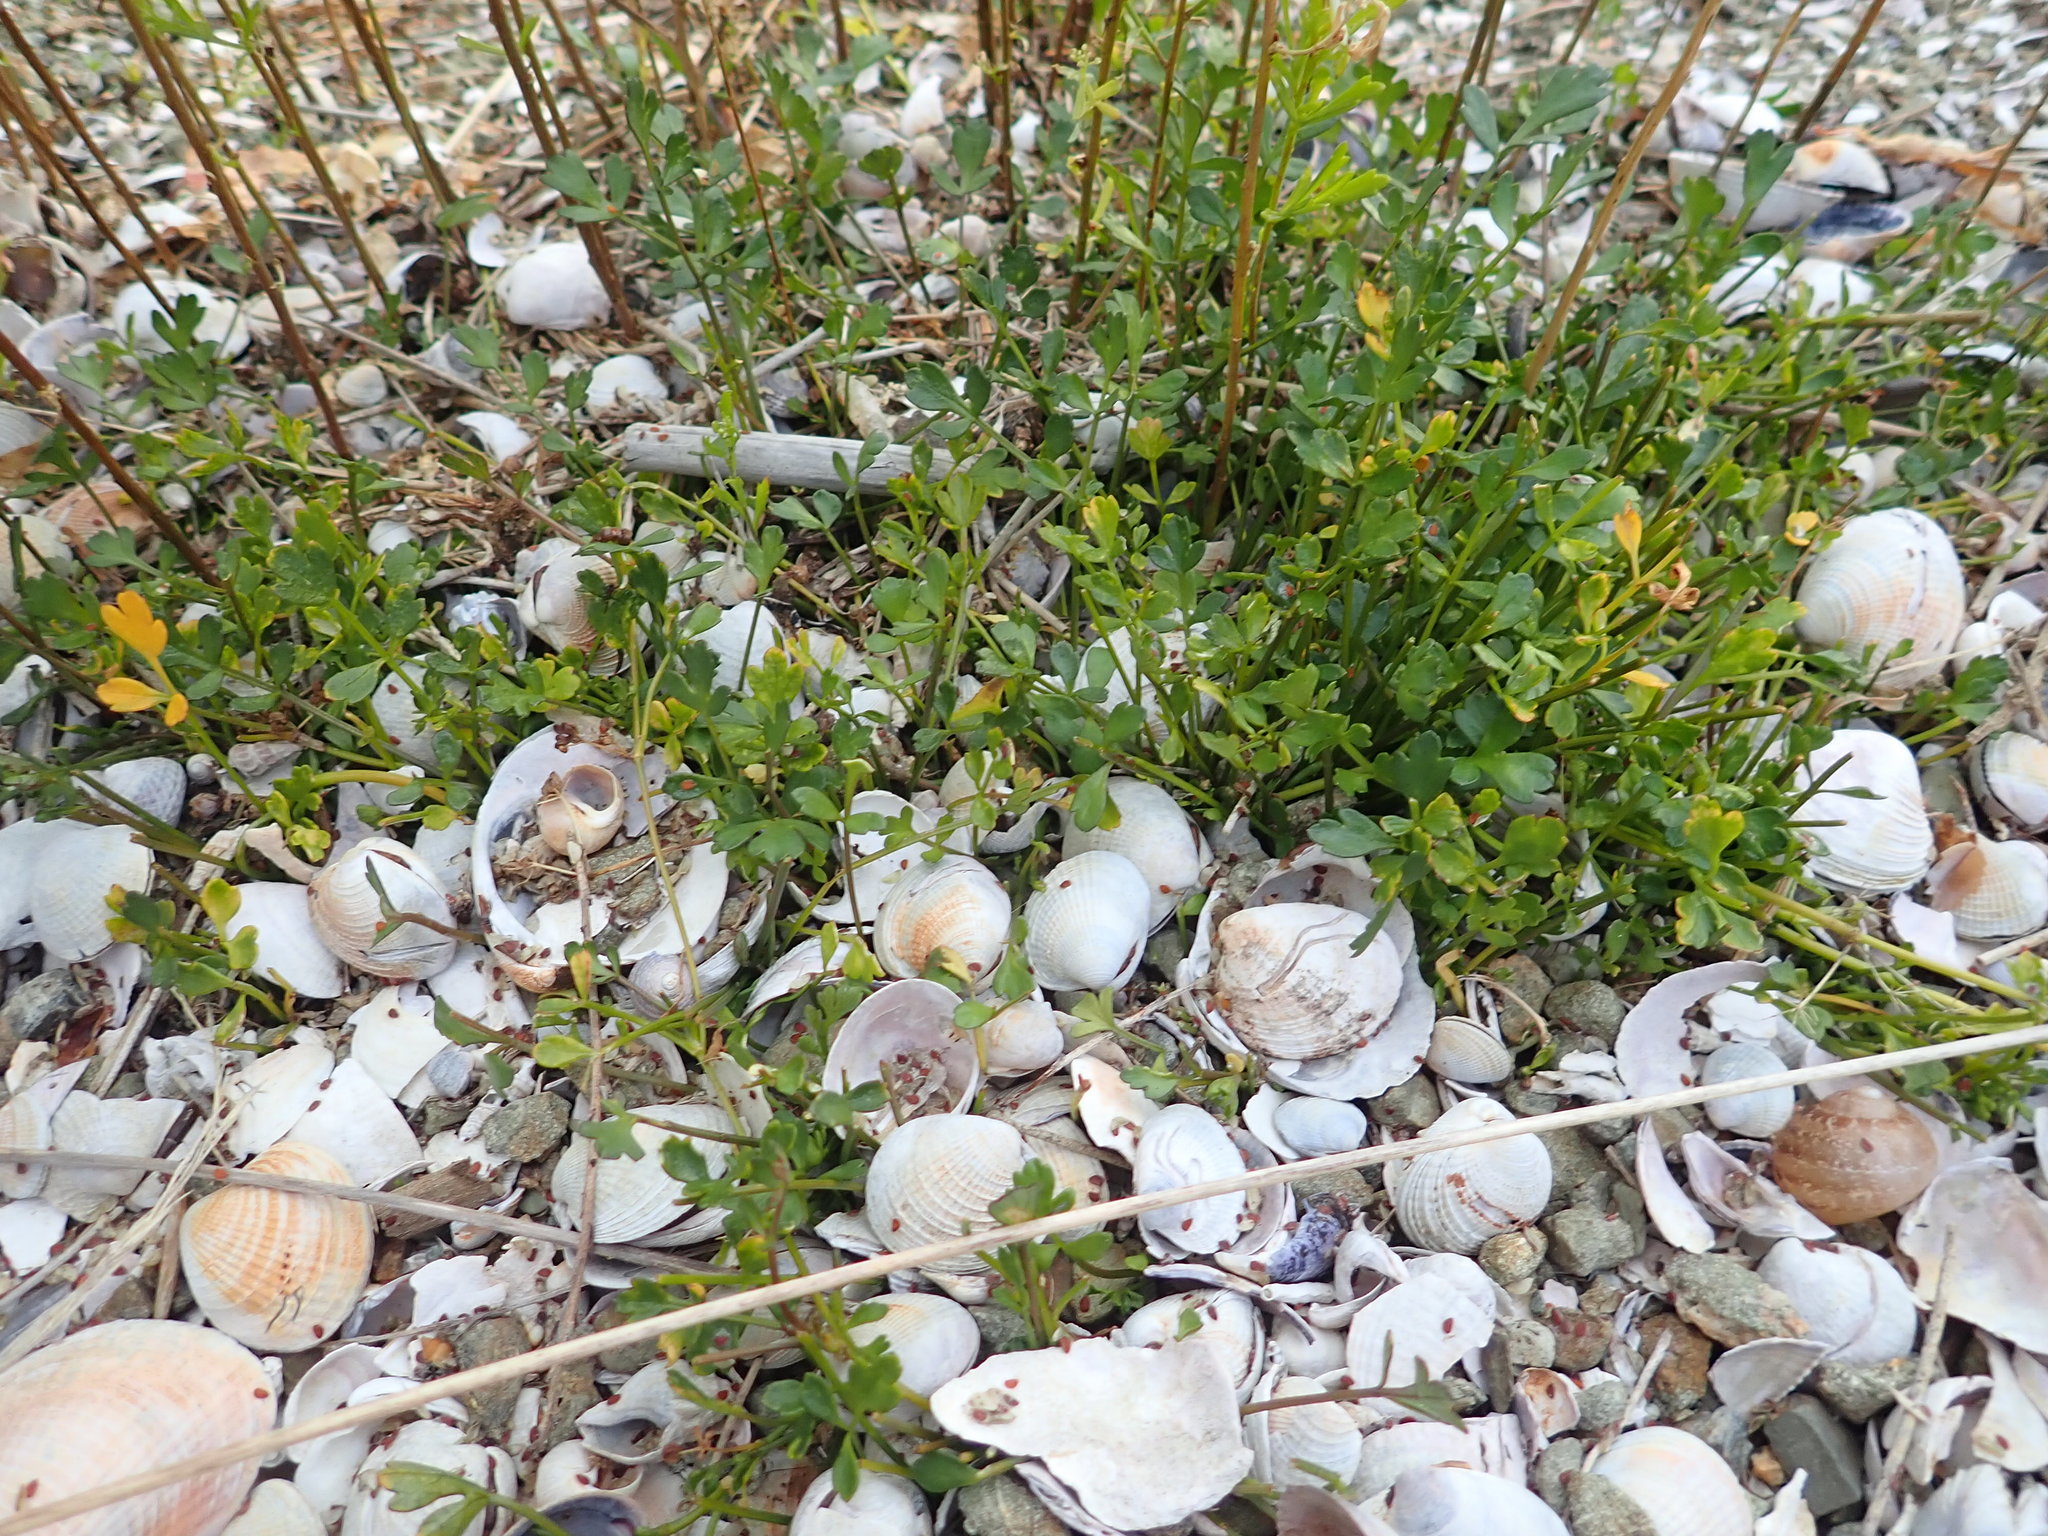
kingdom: Plantae
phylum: Tracheophyta
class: Magnoliopsida
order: Apiales
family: Apiaceae
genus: Apium
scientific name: Apium prostratum
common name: Prostrate marshwort
